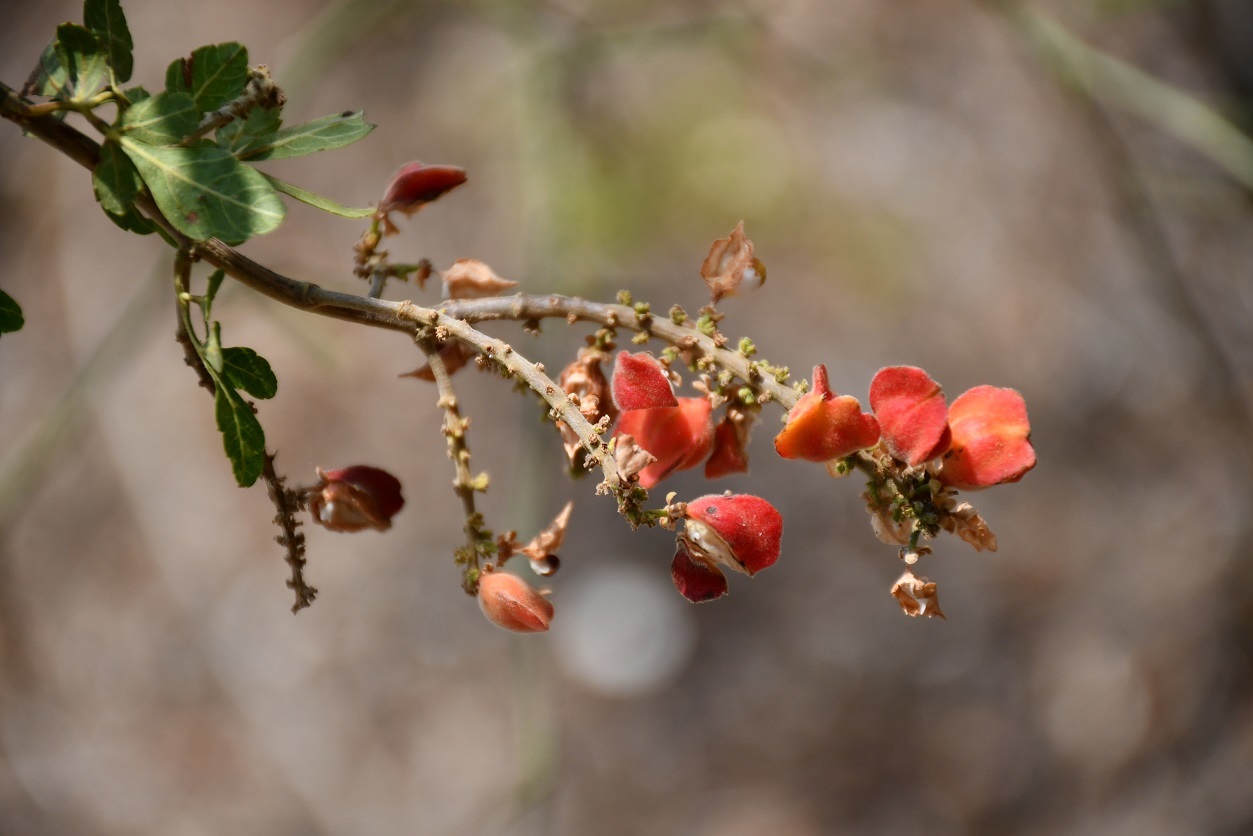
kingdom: Plantae
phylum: Tracheophyta
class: Magnoliopsida
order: Sapindales
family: Sapindaceae
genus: Paullinia
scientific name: Paullinia fuscescens
